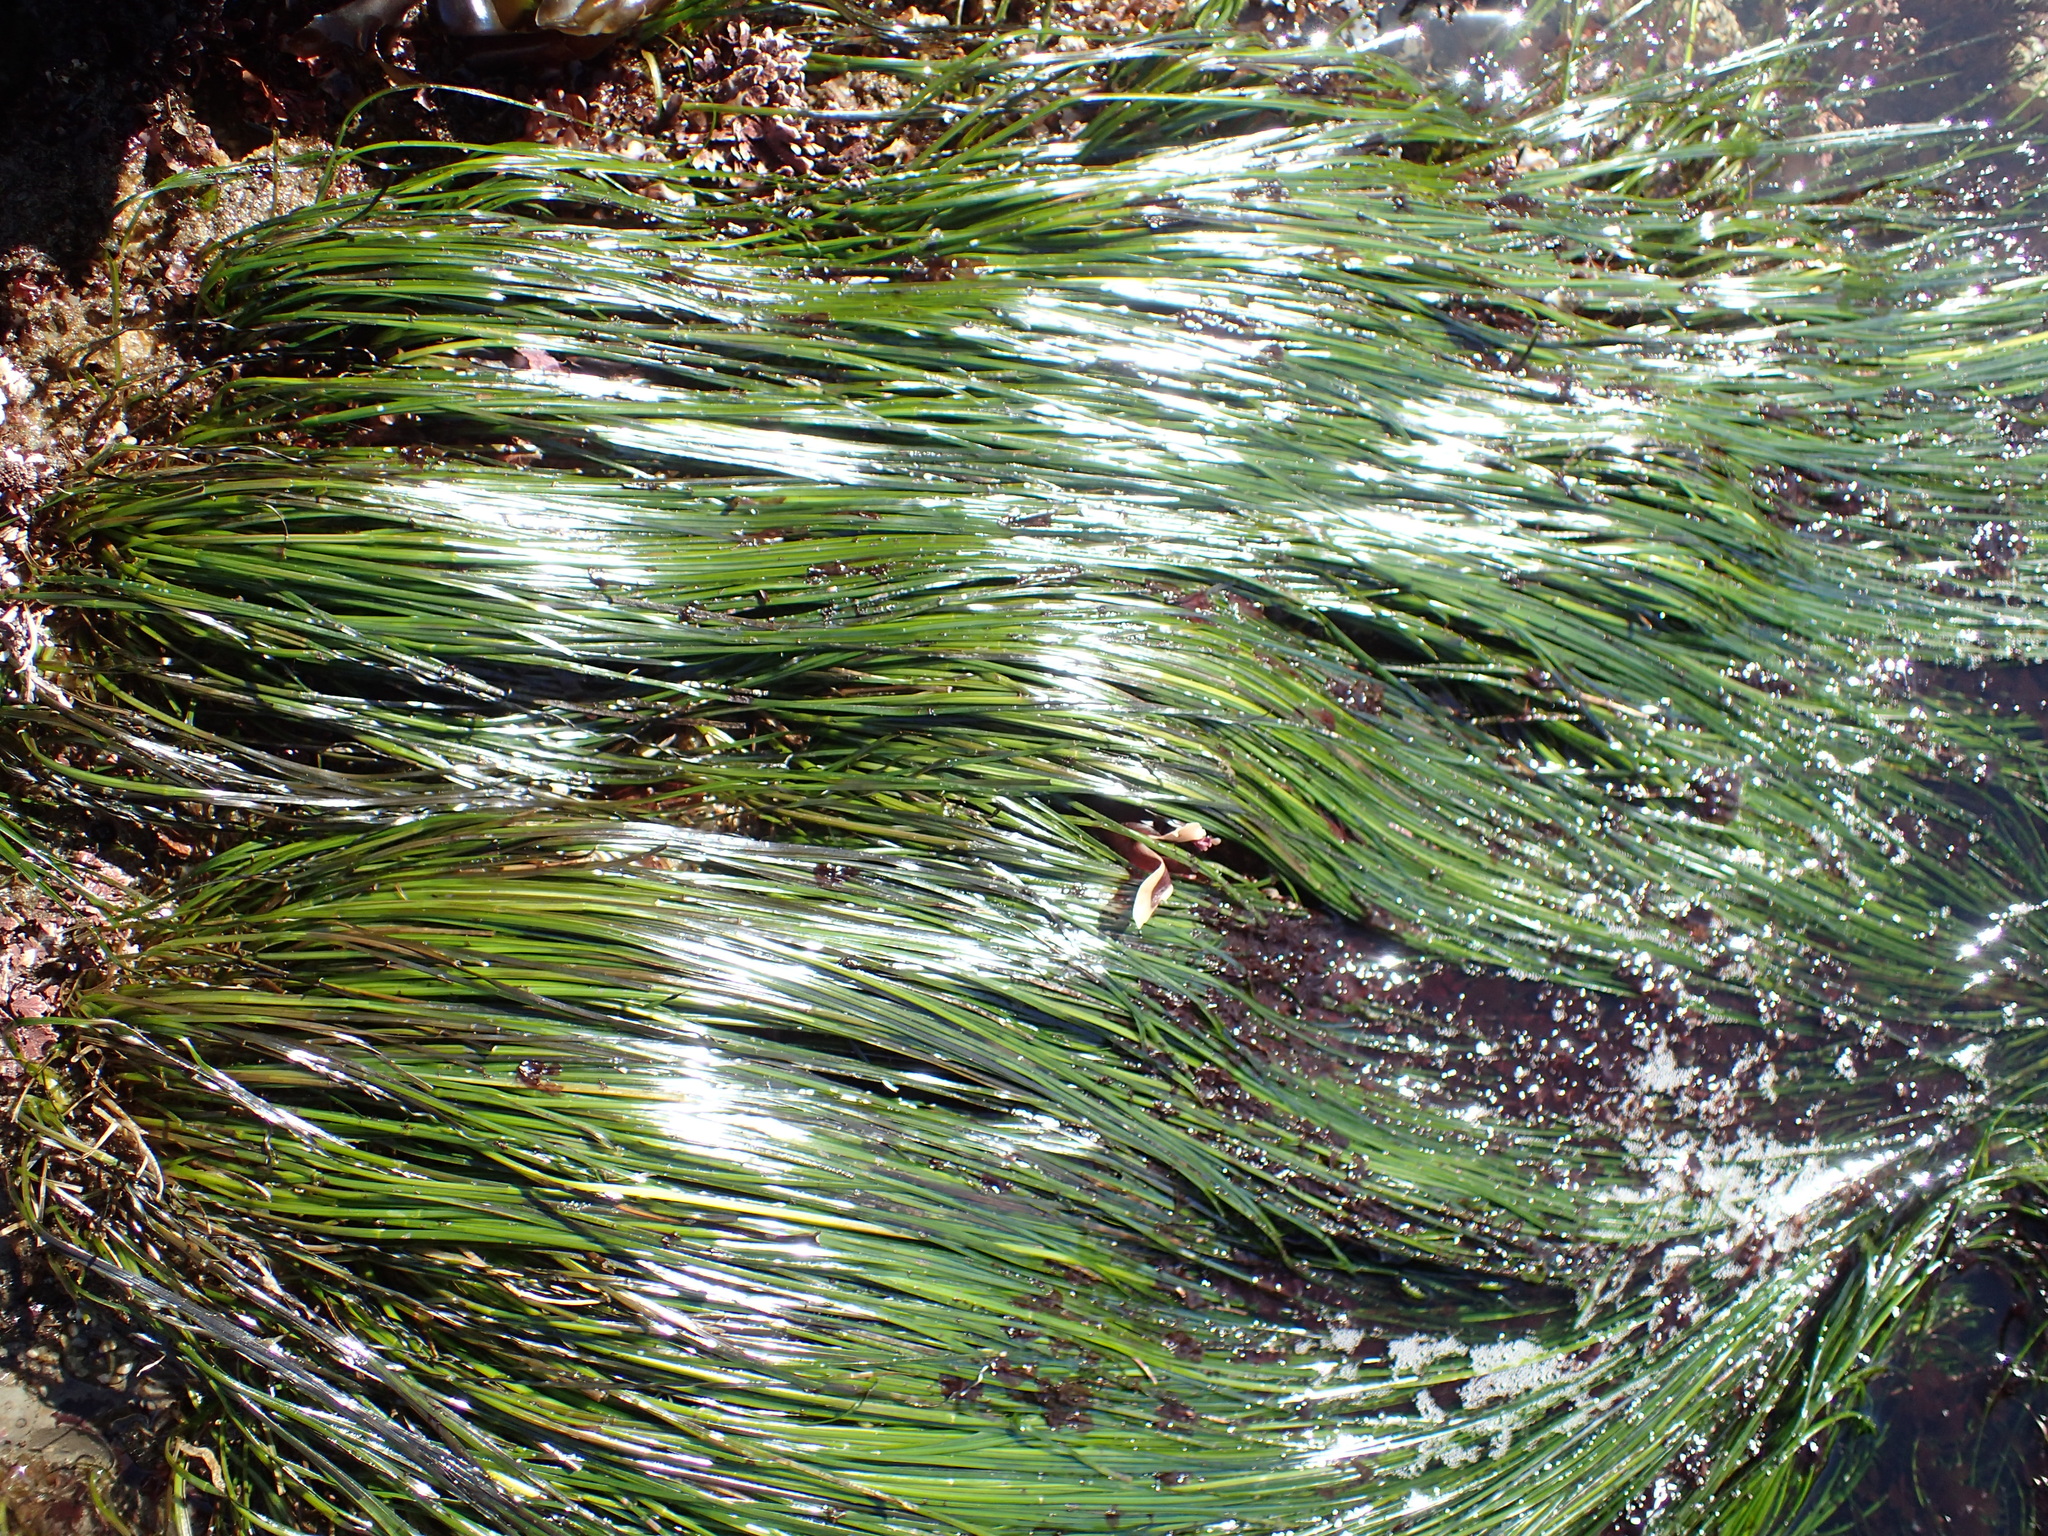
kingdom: Plantae
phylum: Tracheophyta
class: Liliopsida
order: Alismatales
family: Zosteraceae
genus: Phyllospadix
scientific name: Phyllospadix torreyi
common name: Surfgrass
